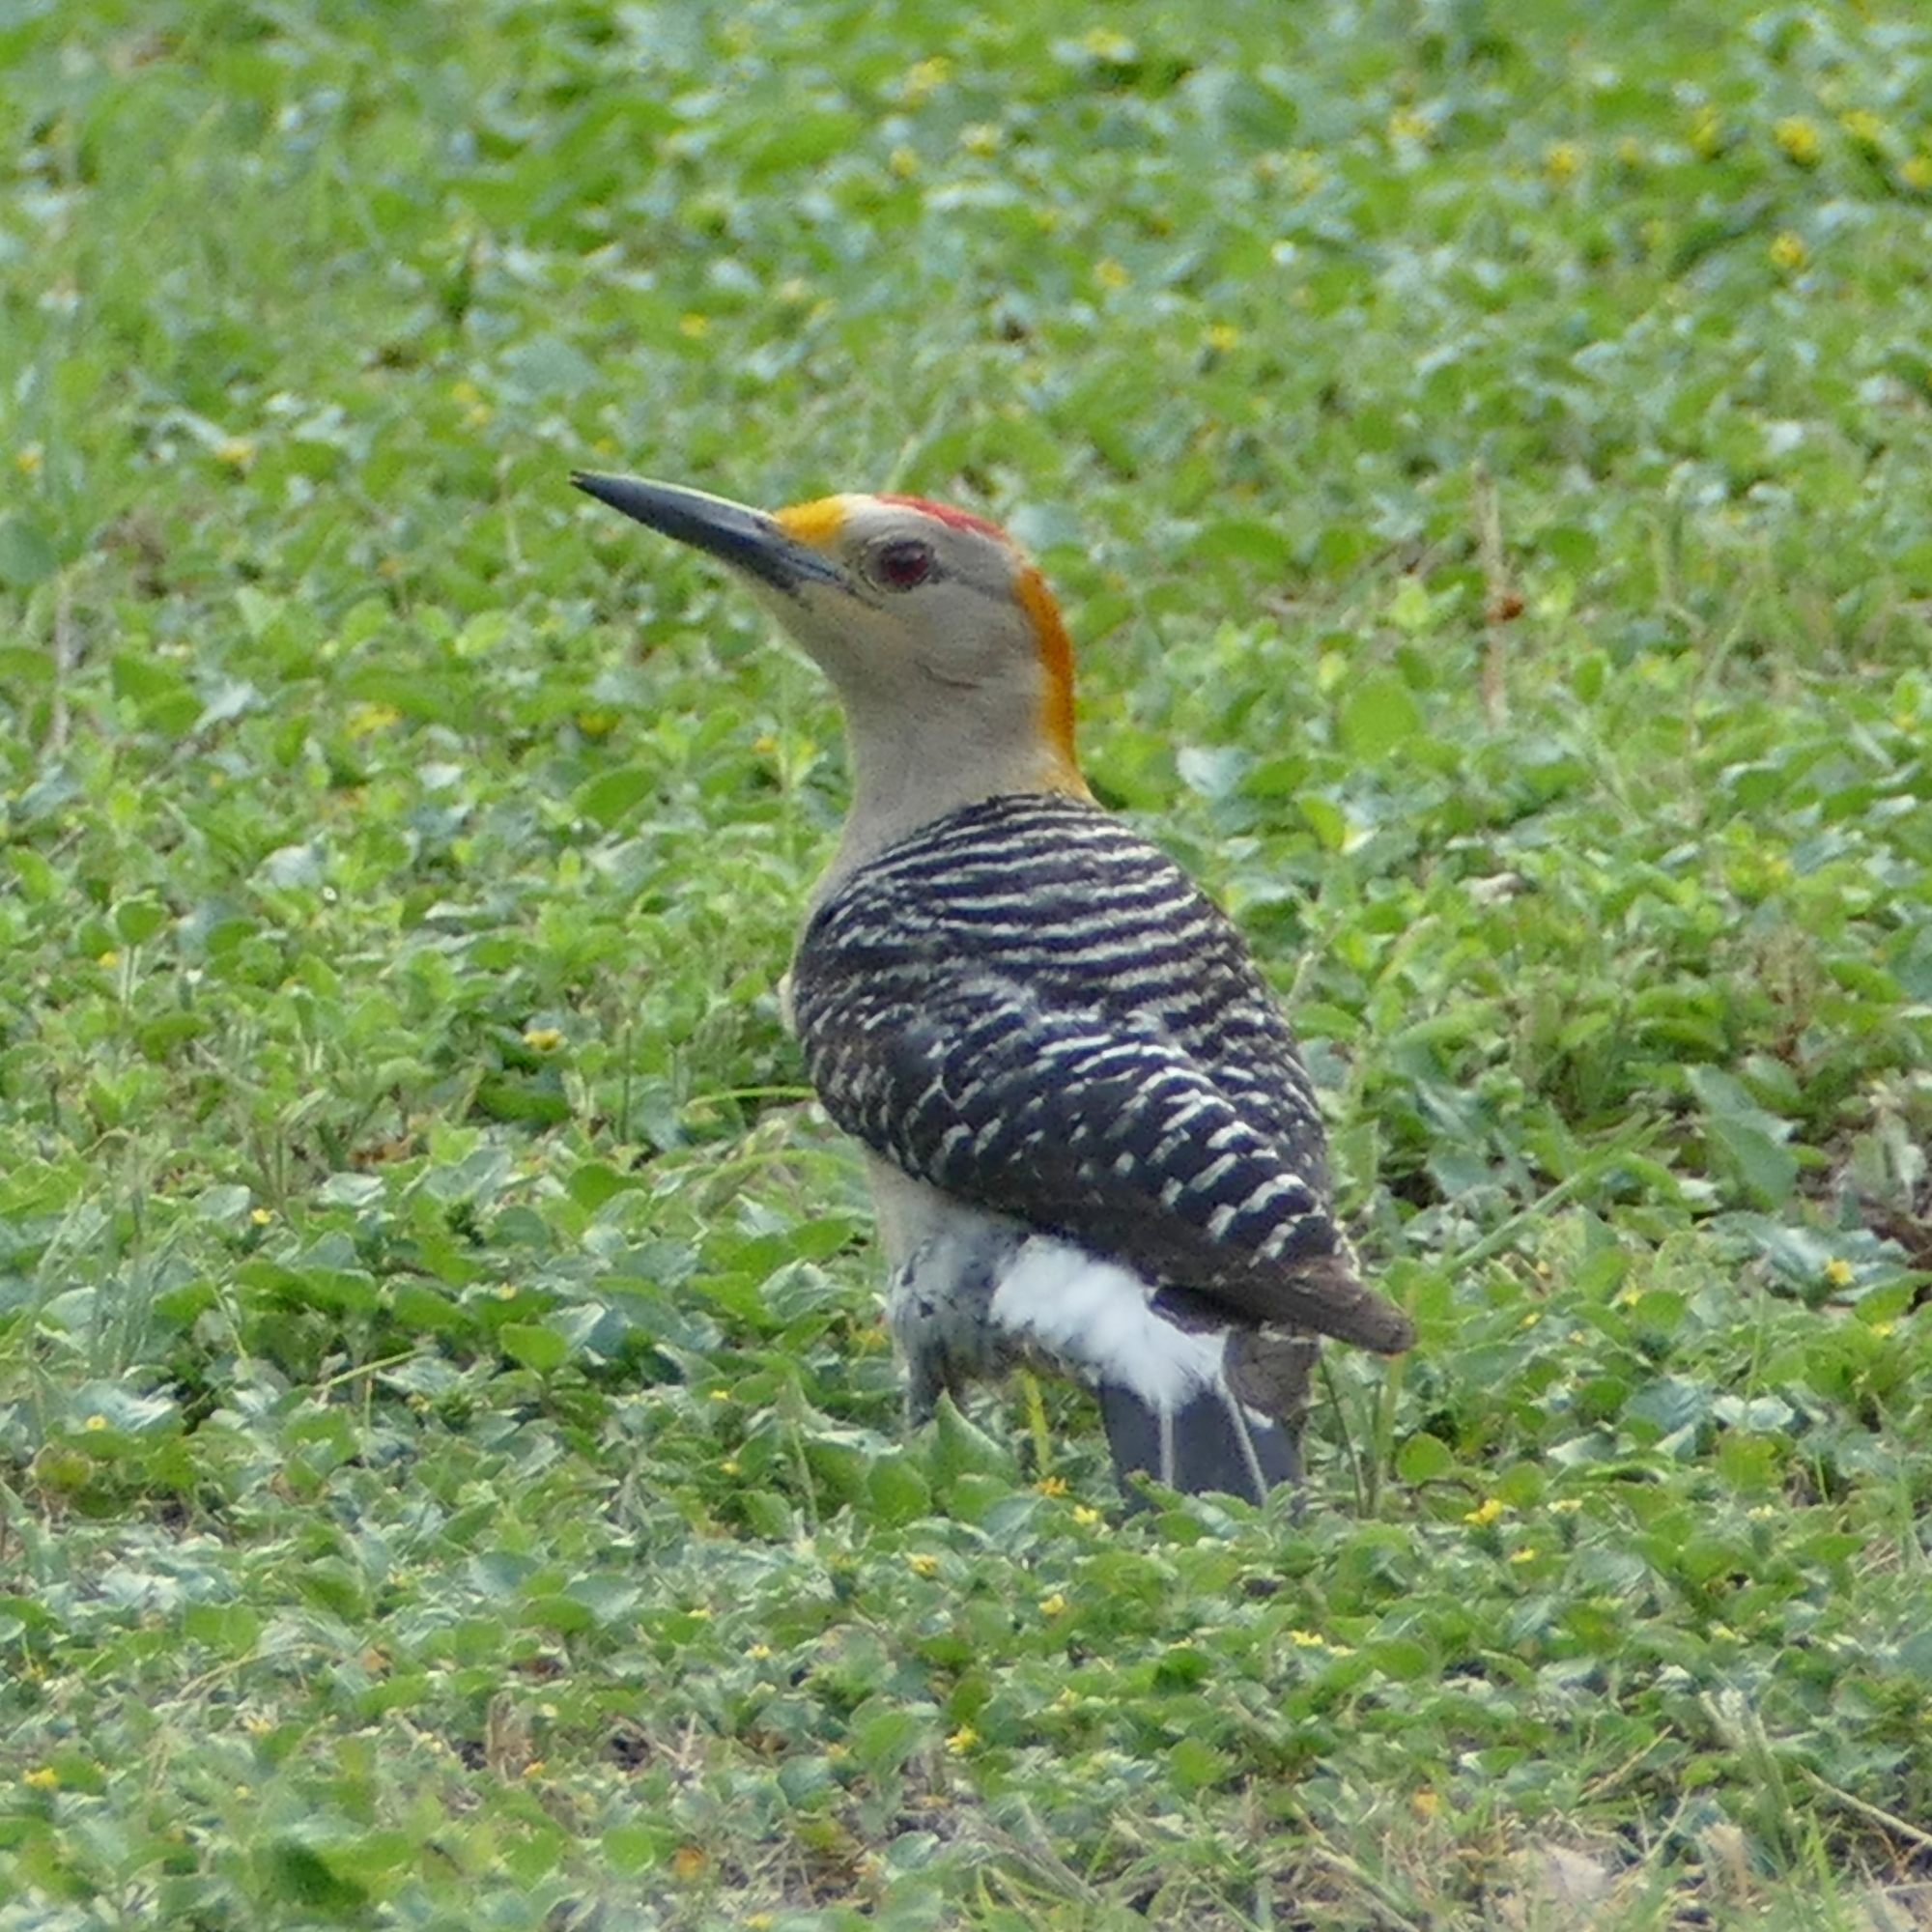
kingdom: Animalia
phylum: Chordata
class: Aves
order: Piciformes
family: Picidae
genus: Melanerpes
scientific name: Melanerpes aurifrons
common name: Golden-fronted woodpecker
